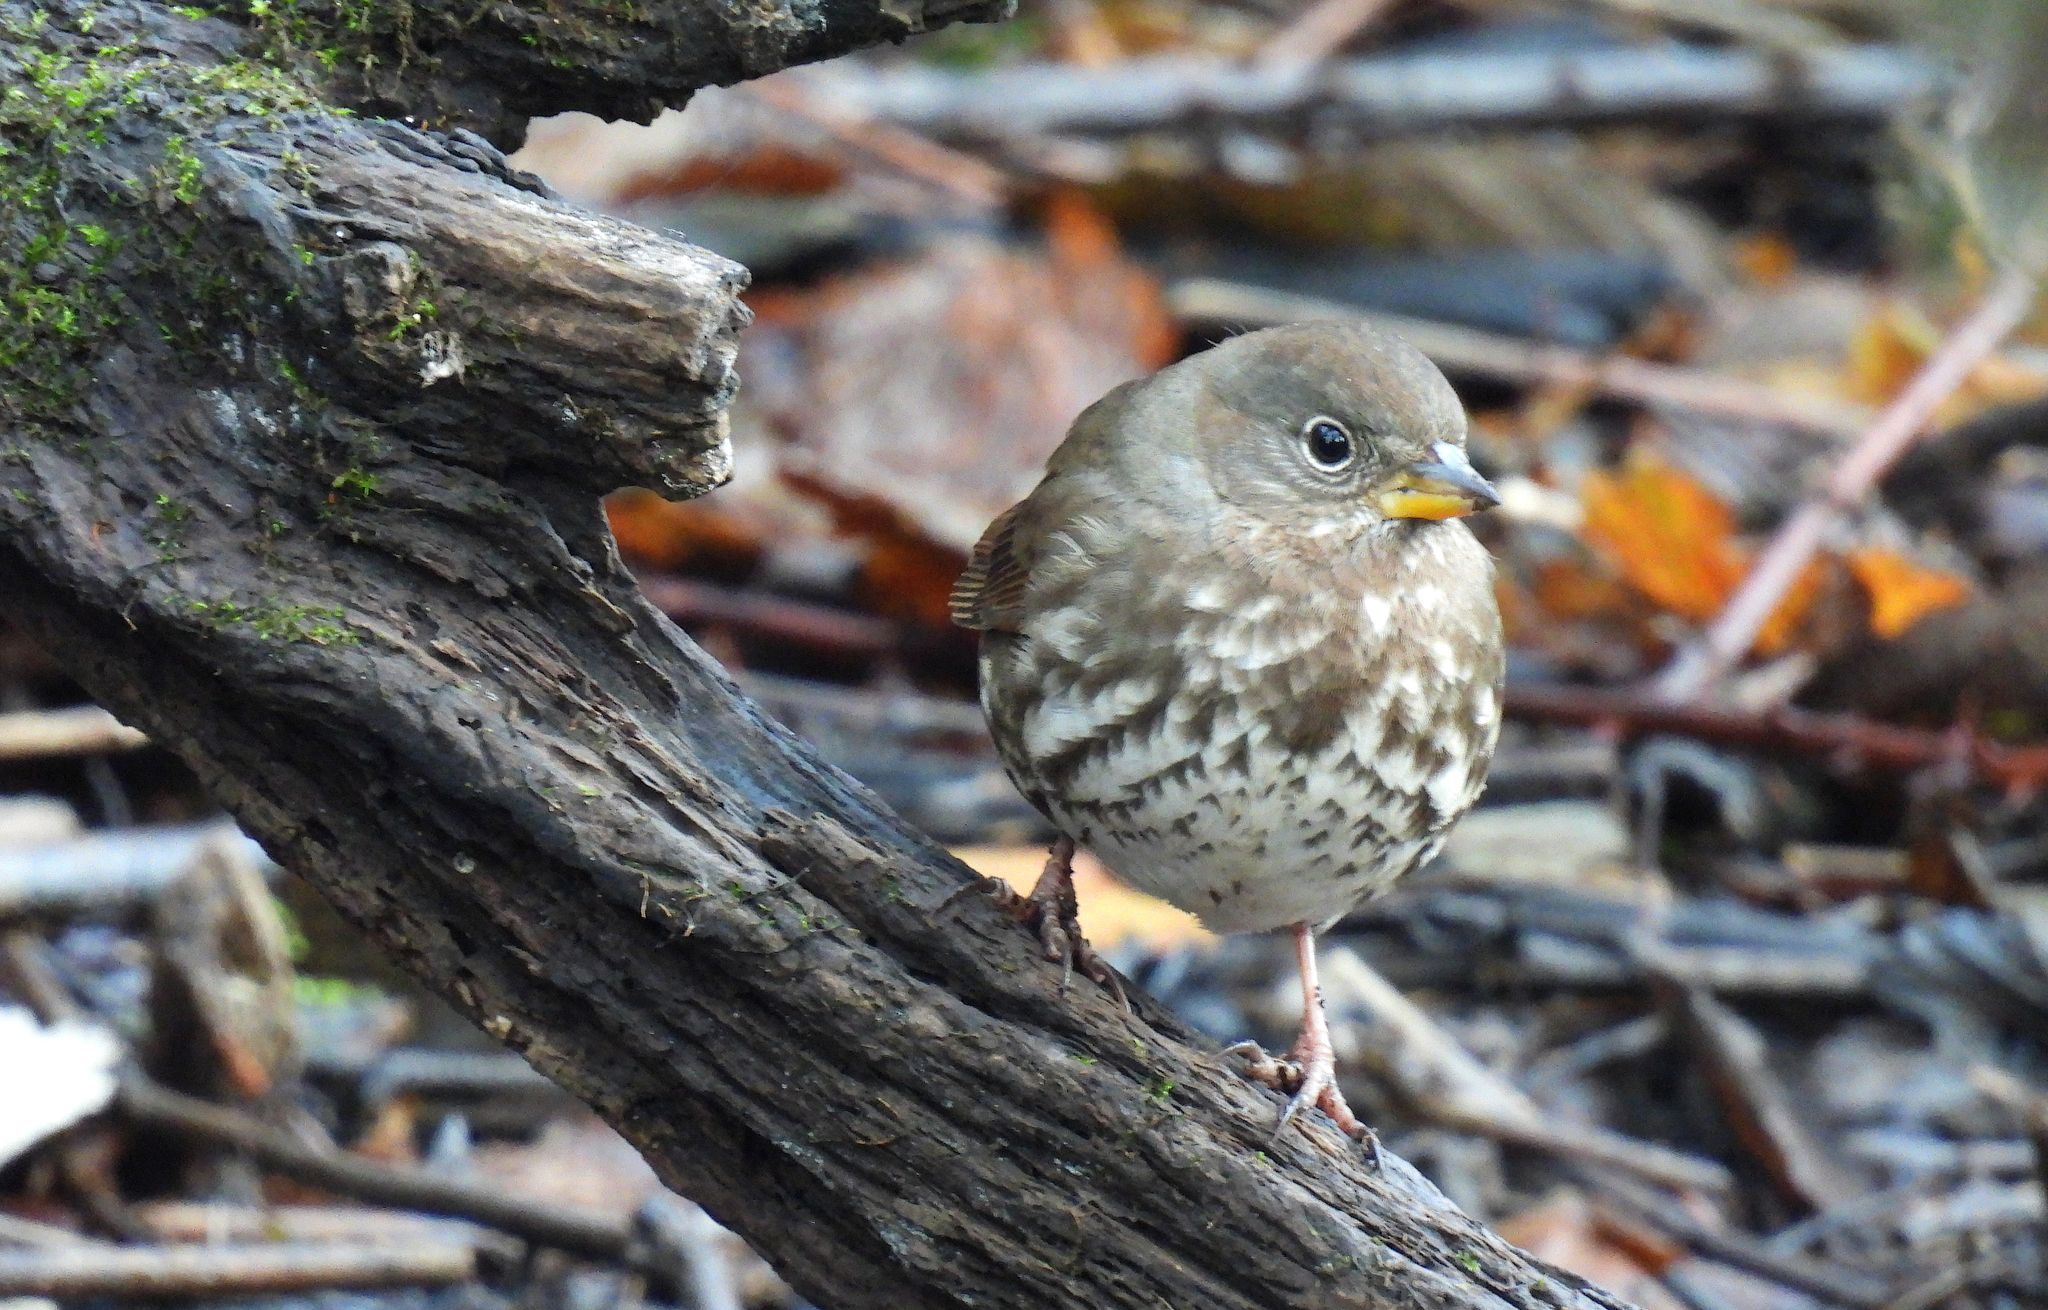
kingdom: Animalia
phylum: Chordata
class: Aves
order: Passeriformes
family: Passerellidae
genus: Passerella
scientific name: Passerella iliaca
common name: Fox sparrow
